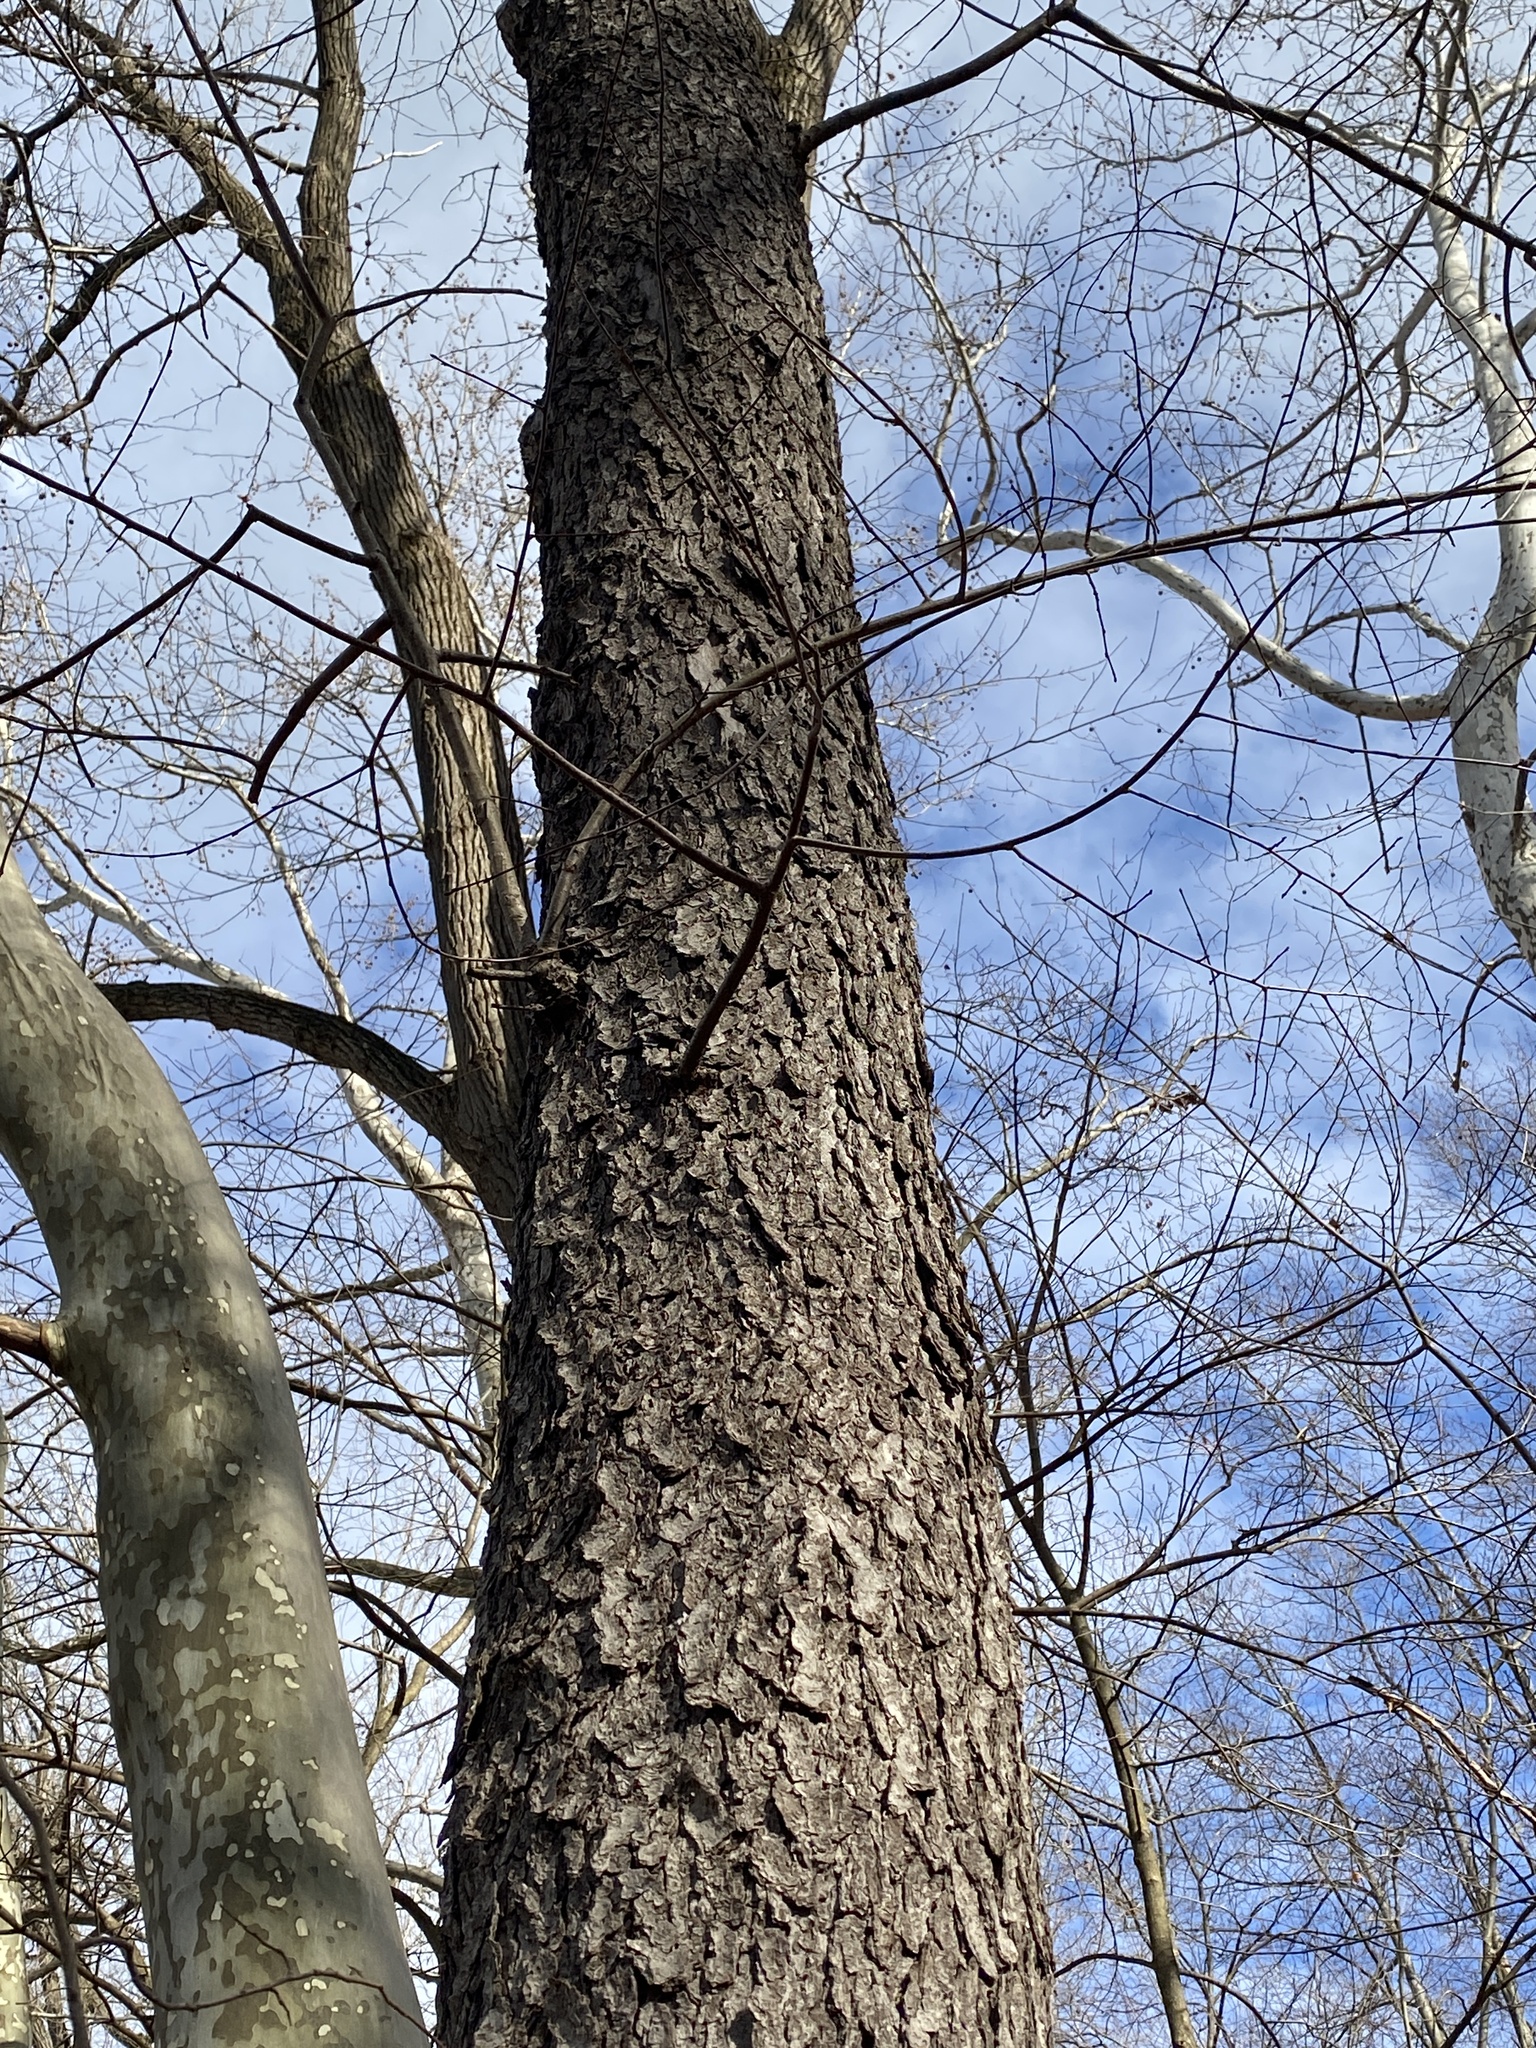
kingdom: Plantae
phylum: Tracheophyta
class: Magnoliopsida
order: Rosales
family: Rosaceae
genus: Prunus
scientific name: Prunus serotina
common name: Black cherry
